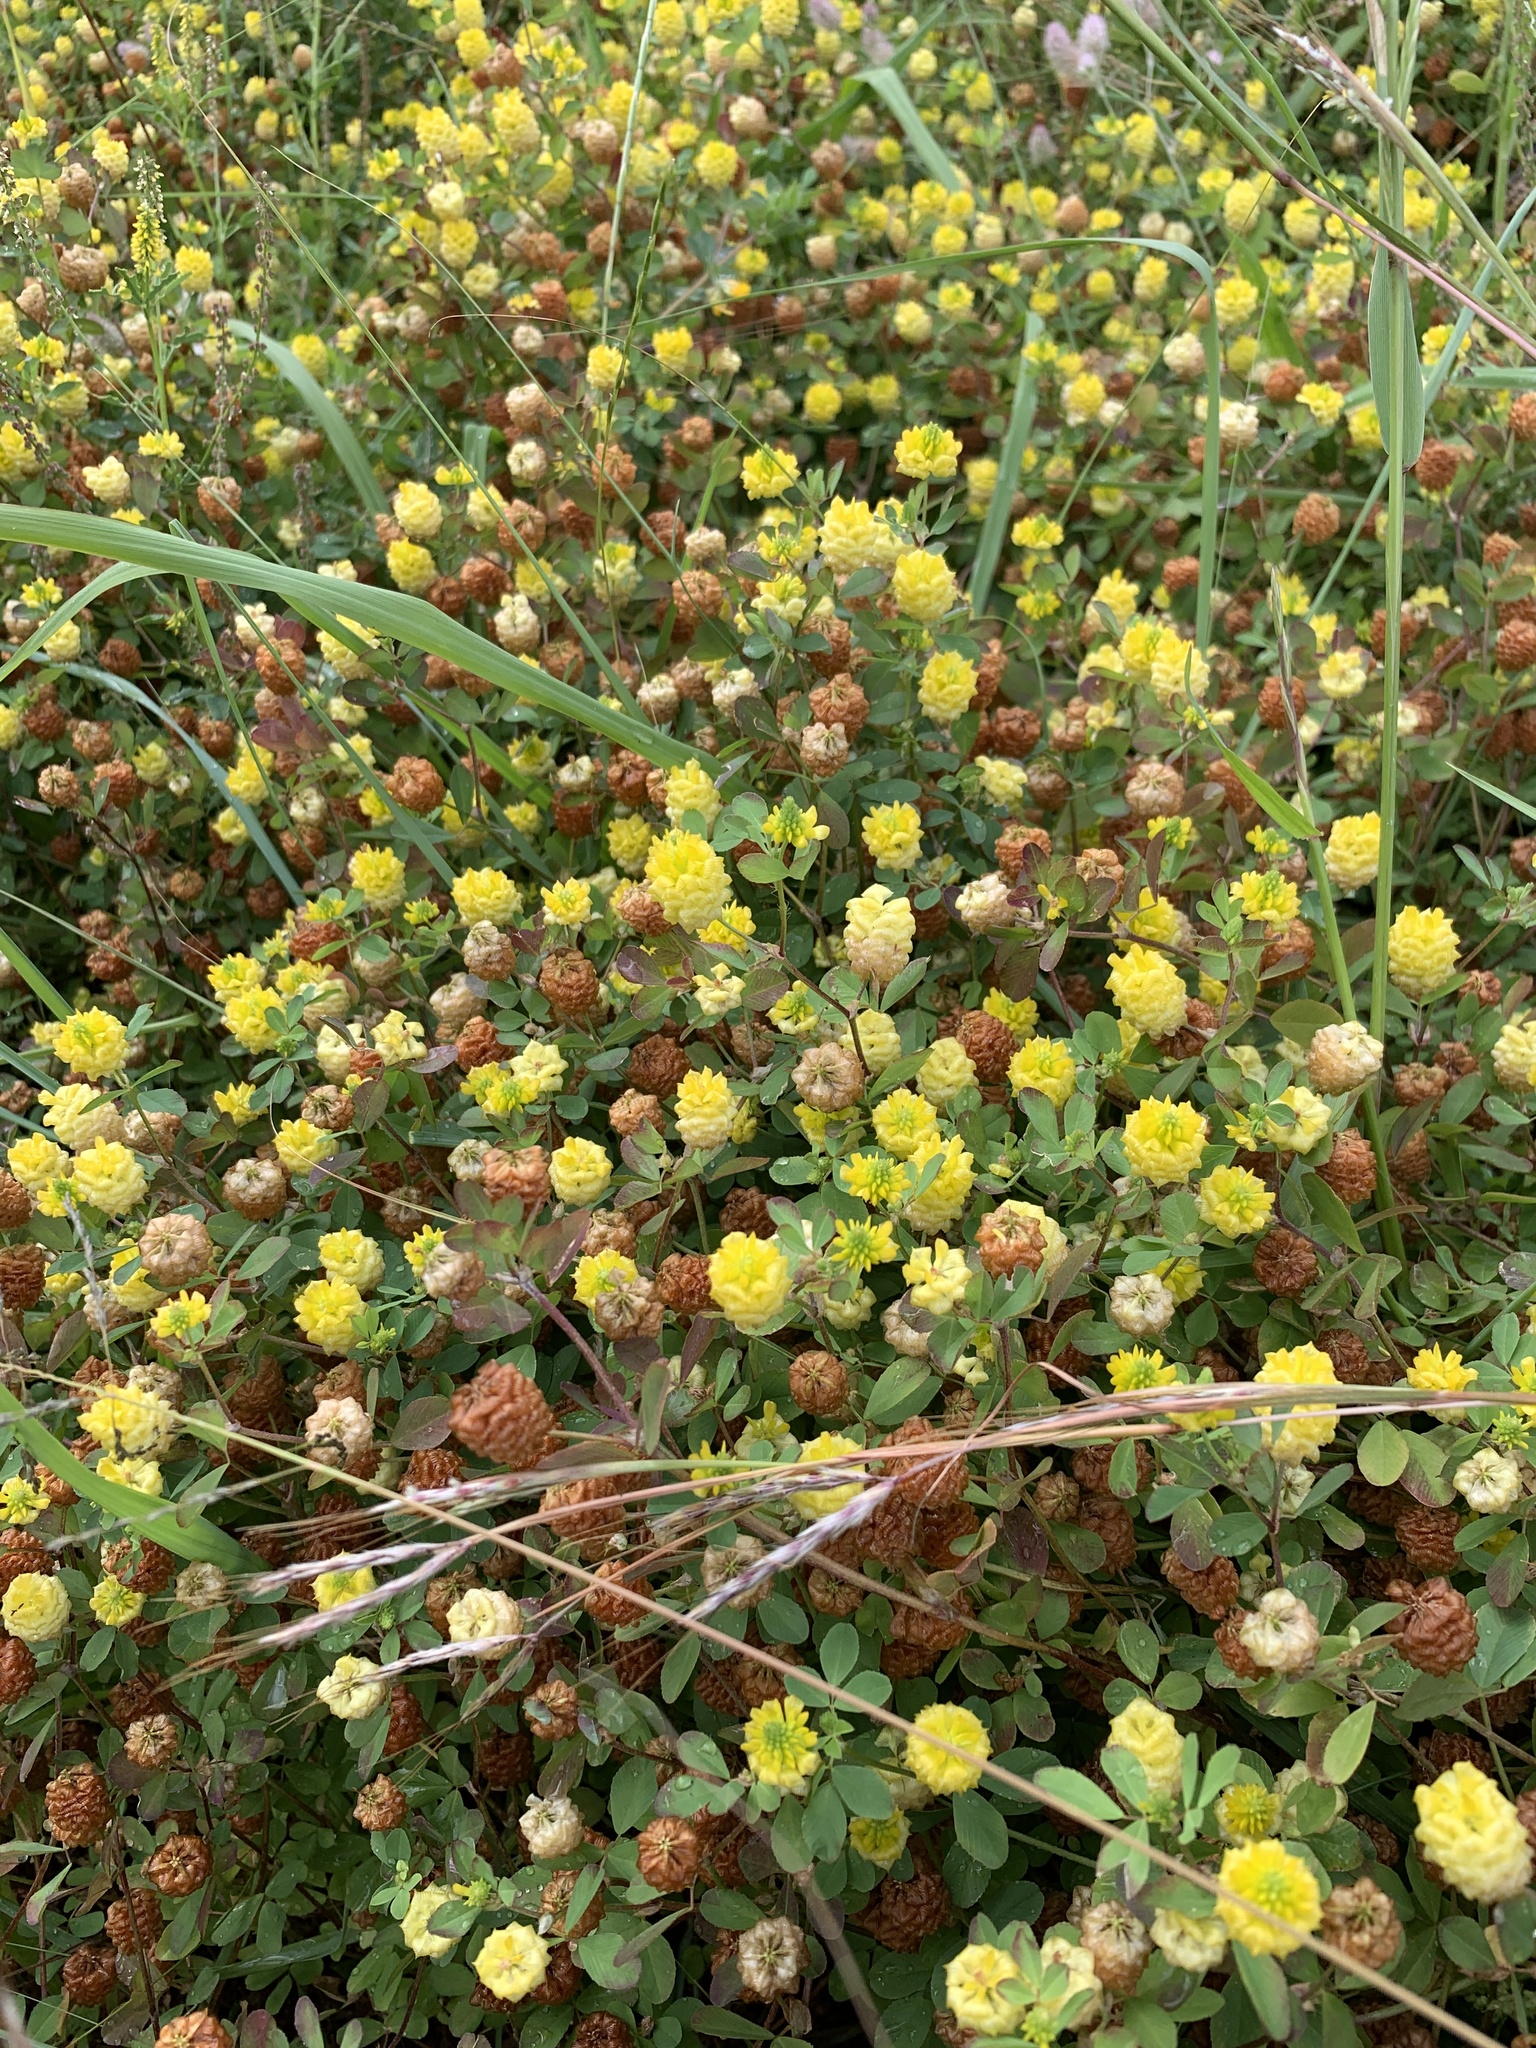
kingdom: Plantae
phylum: Tracheophyta
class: Magnoliopsida
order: Fabales
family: Fabaceae
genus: Trifolium
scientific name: Trifolium campestre
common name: Field clover
